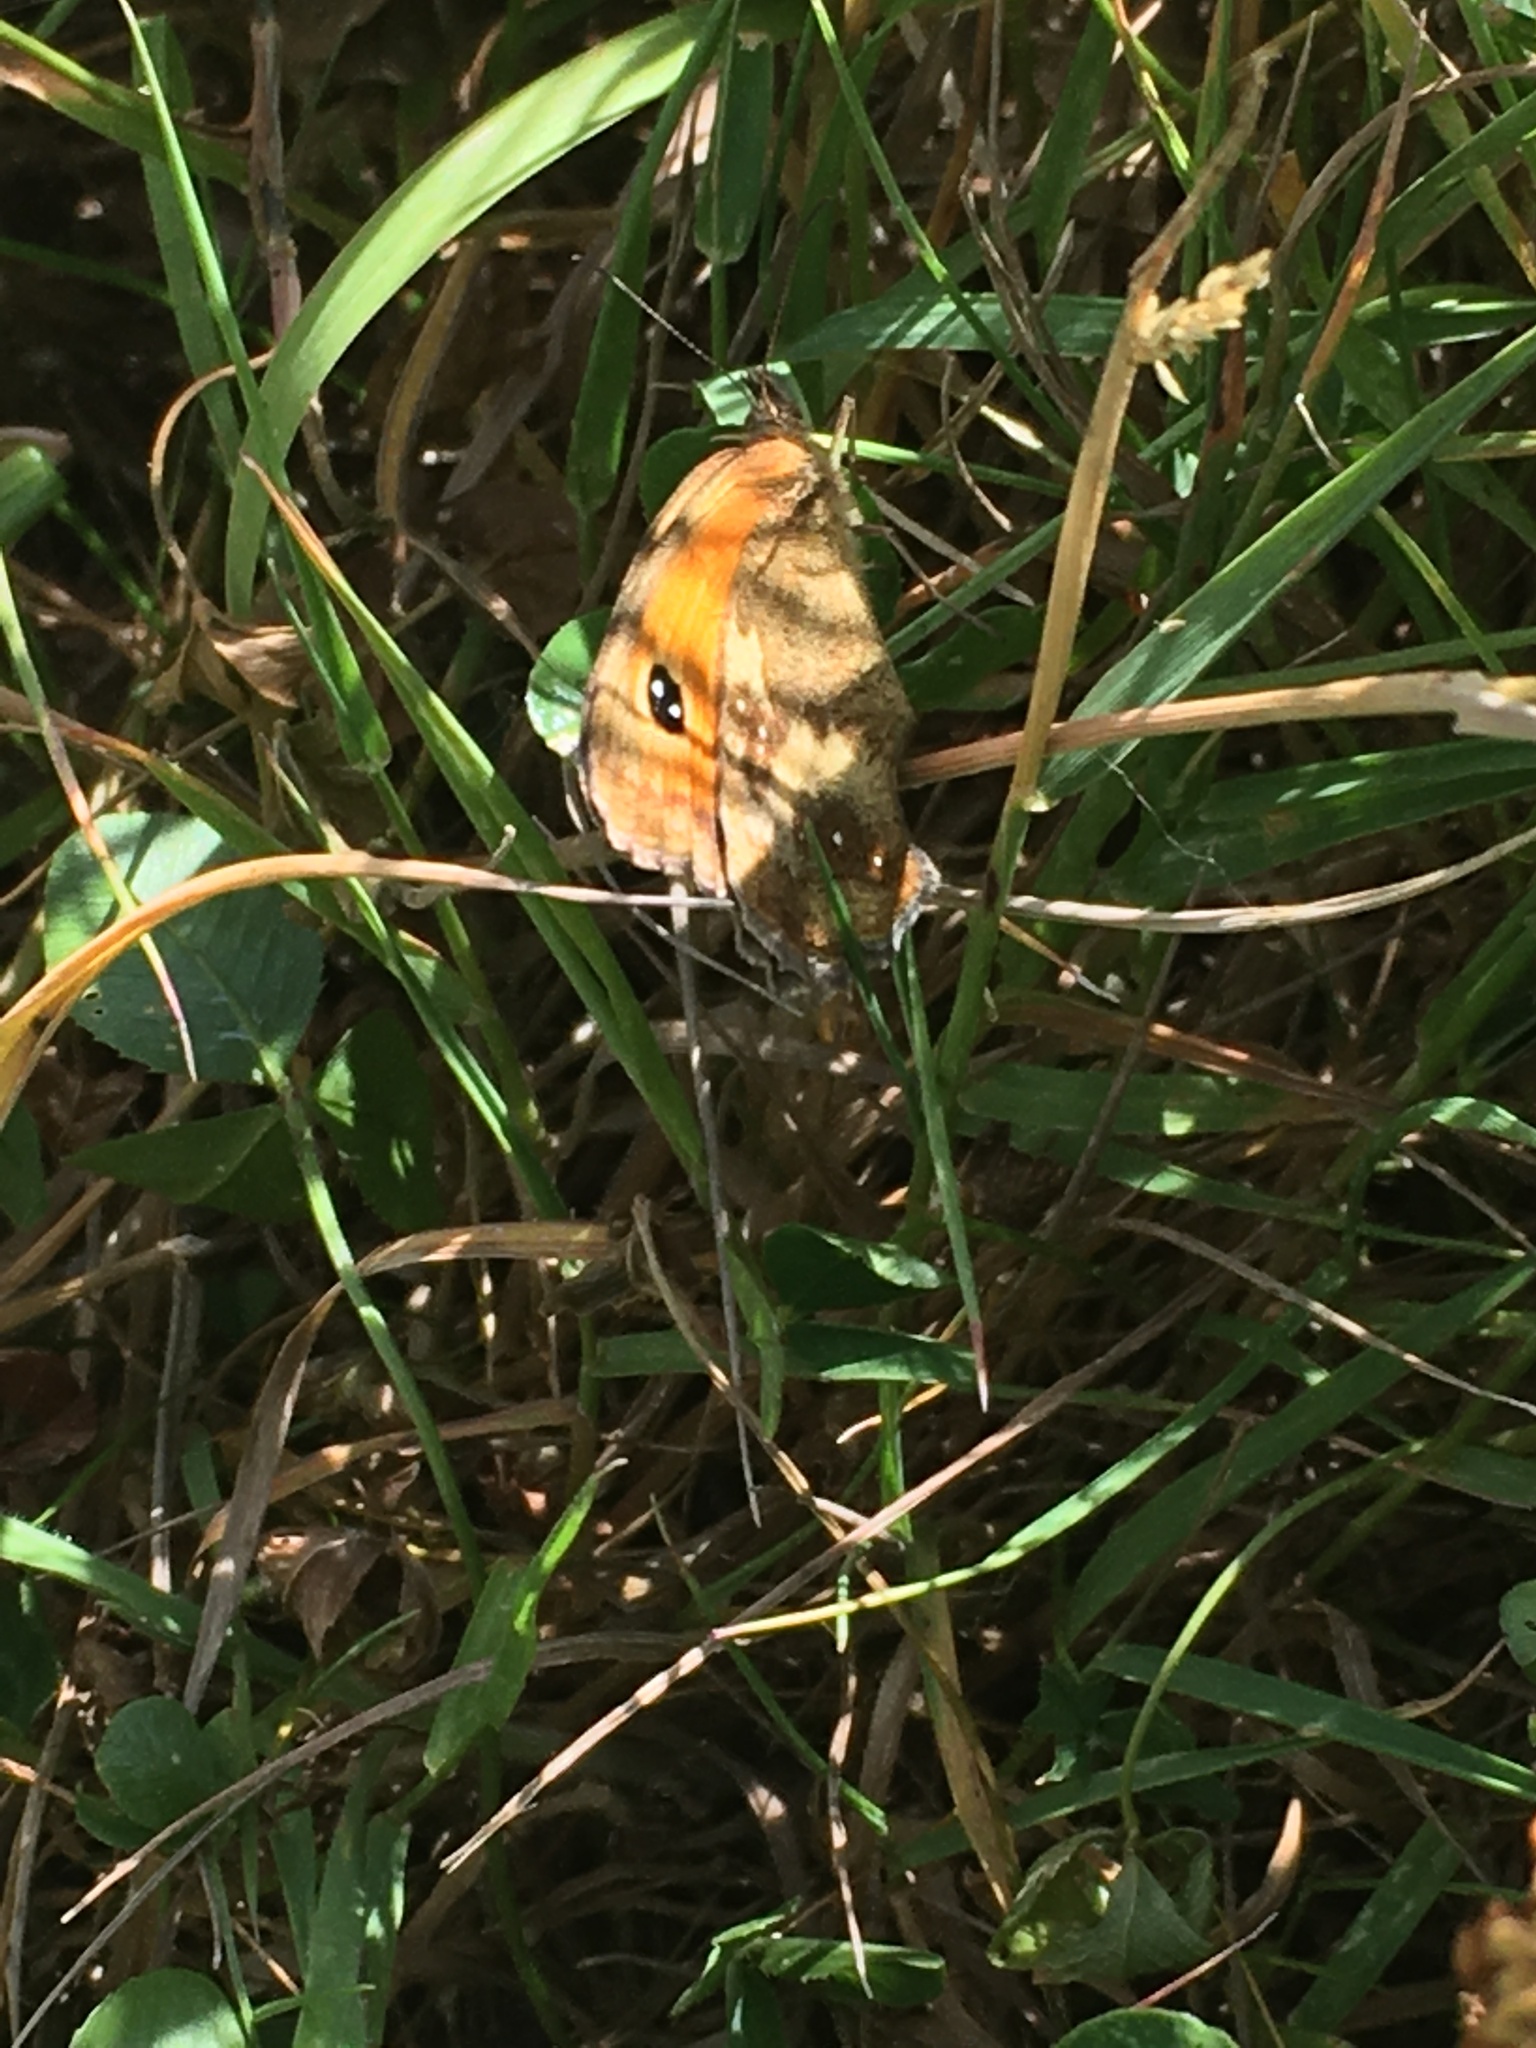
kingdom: Animalia
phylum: Arthropoda
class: Insecta
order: Lepidoptera
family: Nymphalidae
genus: Pyronia
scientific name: Pyronia tithonus
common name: Gatekeeper
